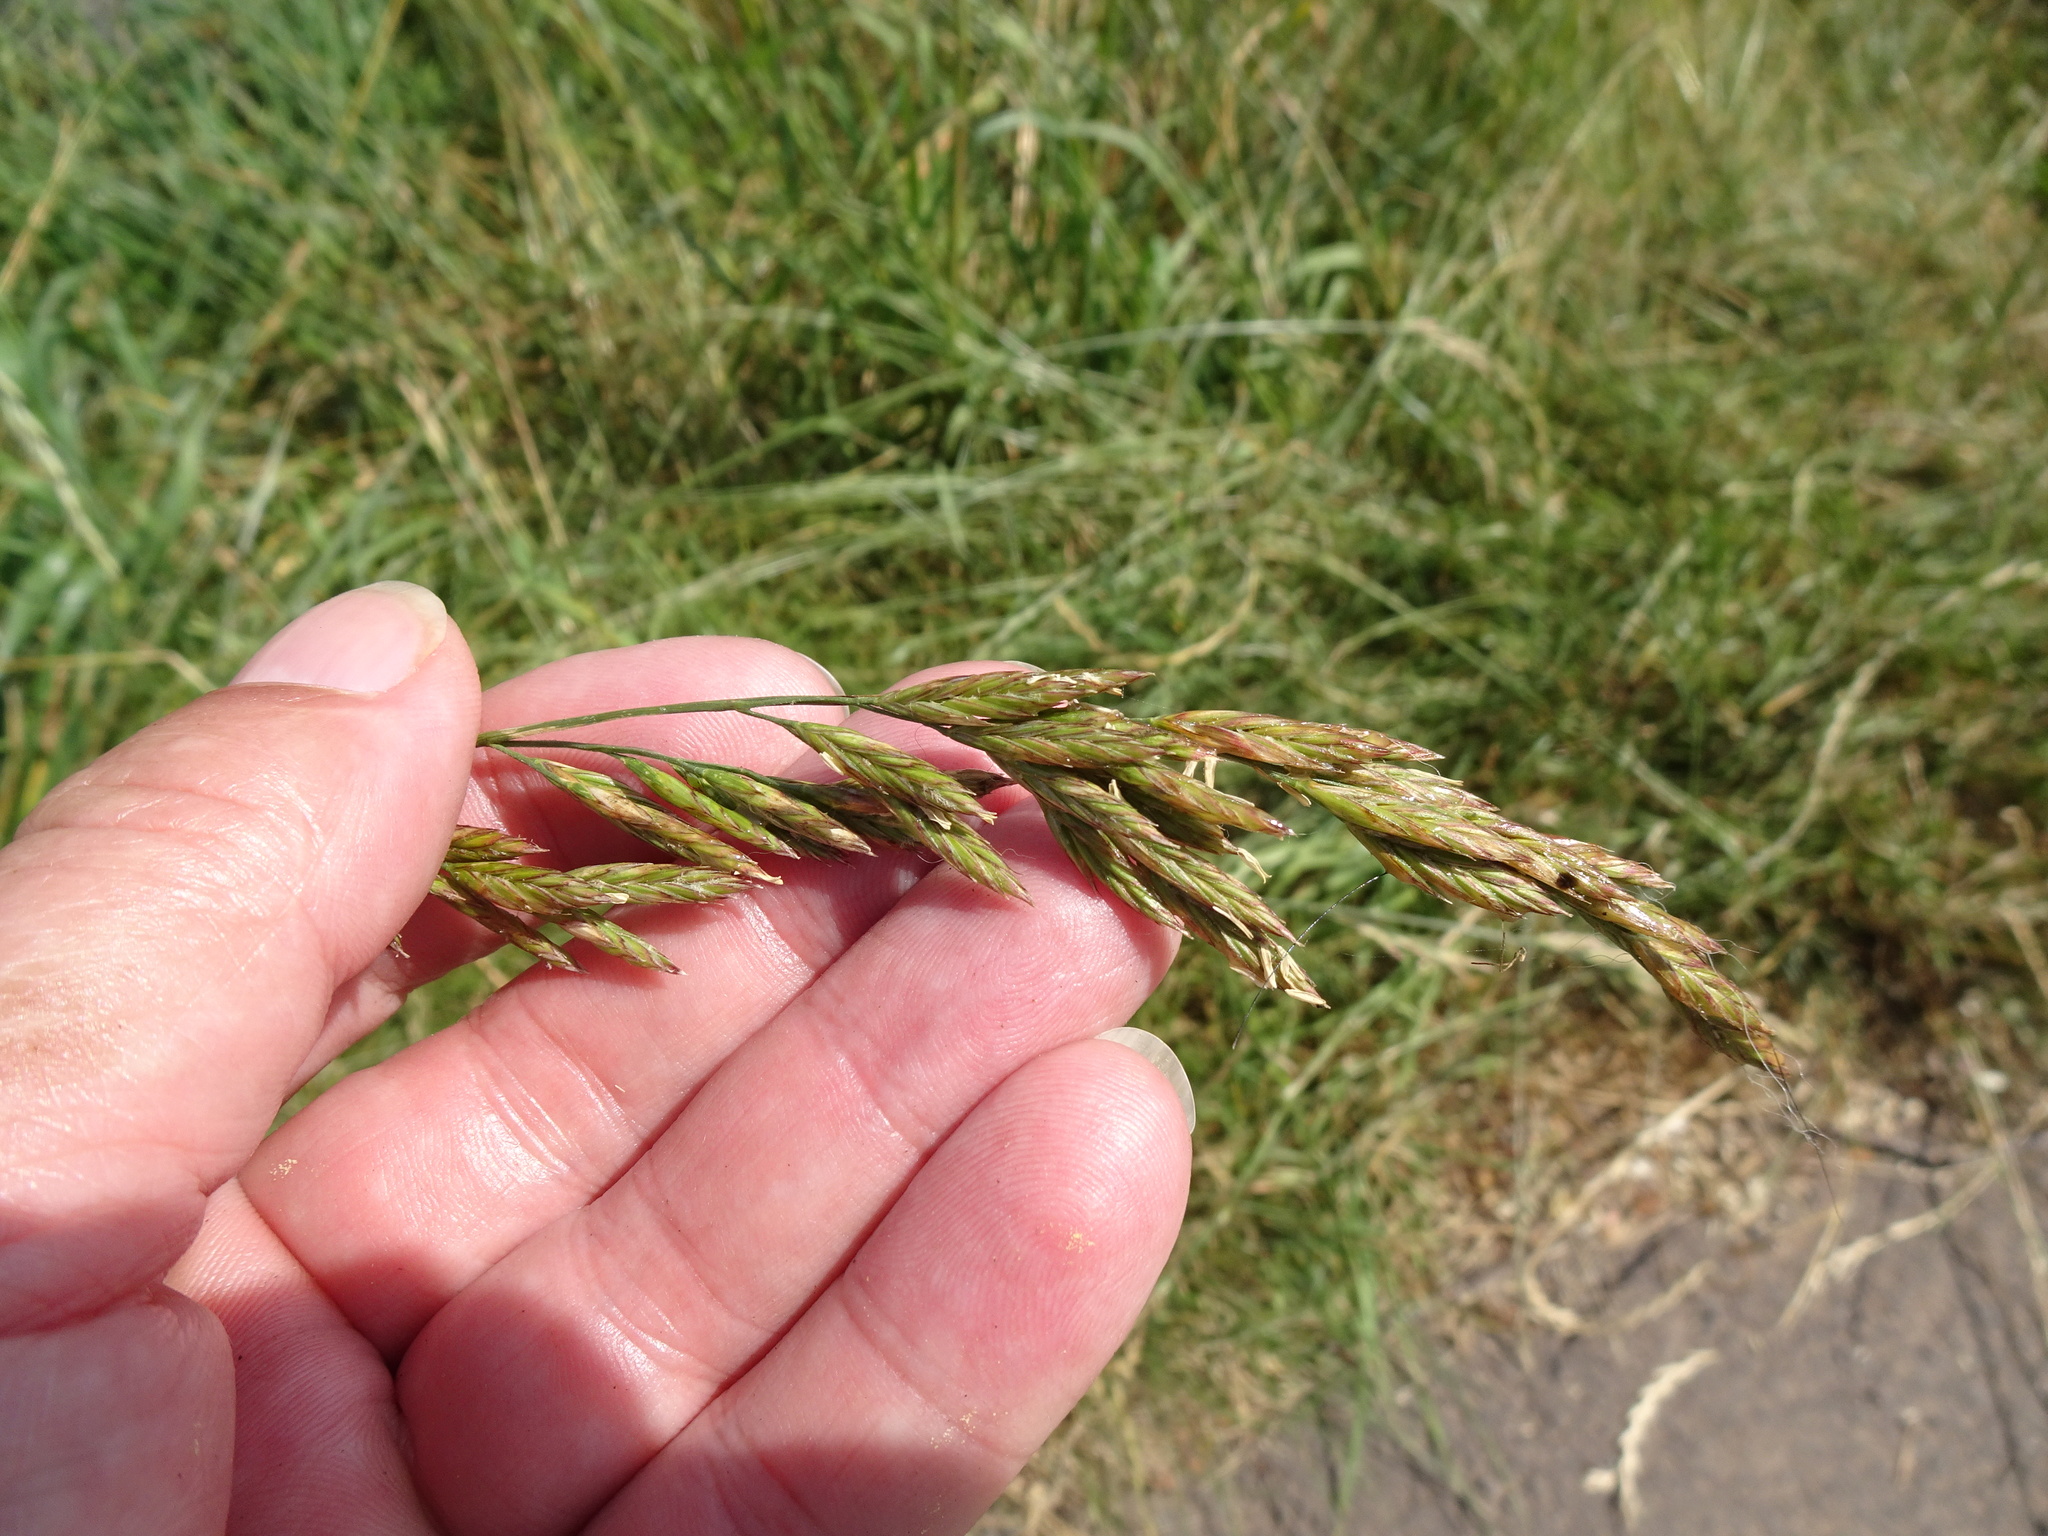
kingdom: Plantae
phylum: Tracheophyta
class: Liliopsida
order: Poales
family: Poaceae
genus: Lolium
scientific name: Lolium arundinaceum
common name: Reed fescue
